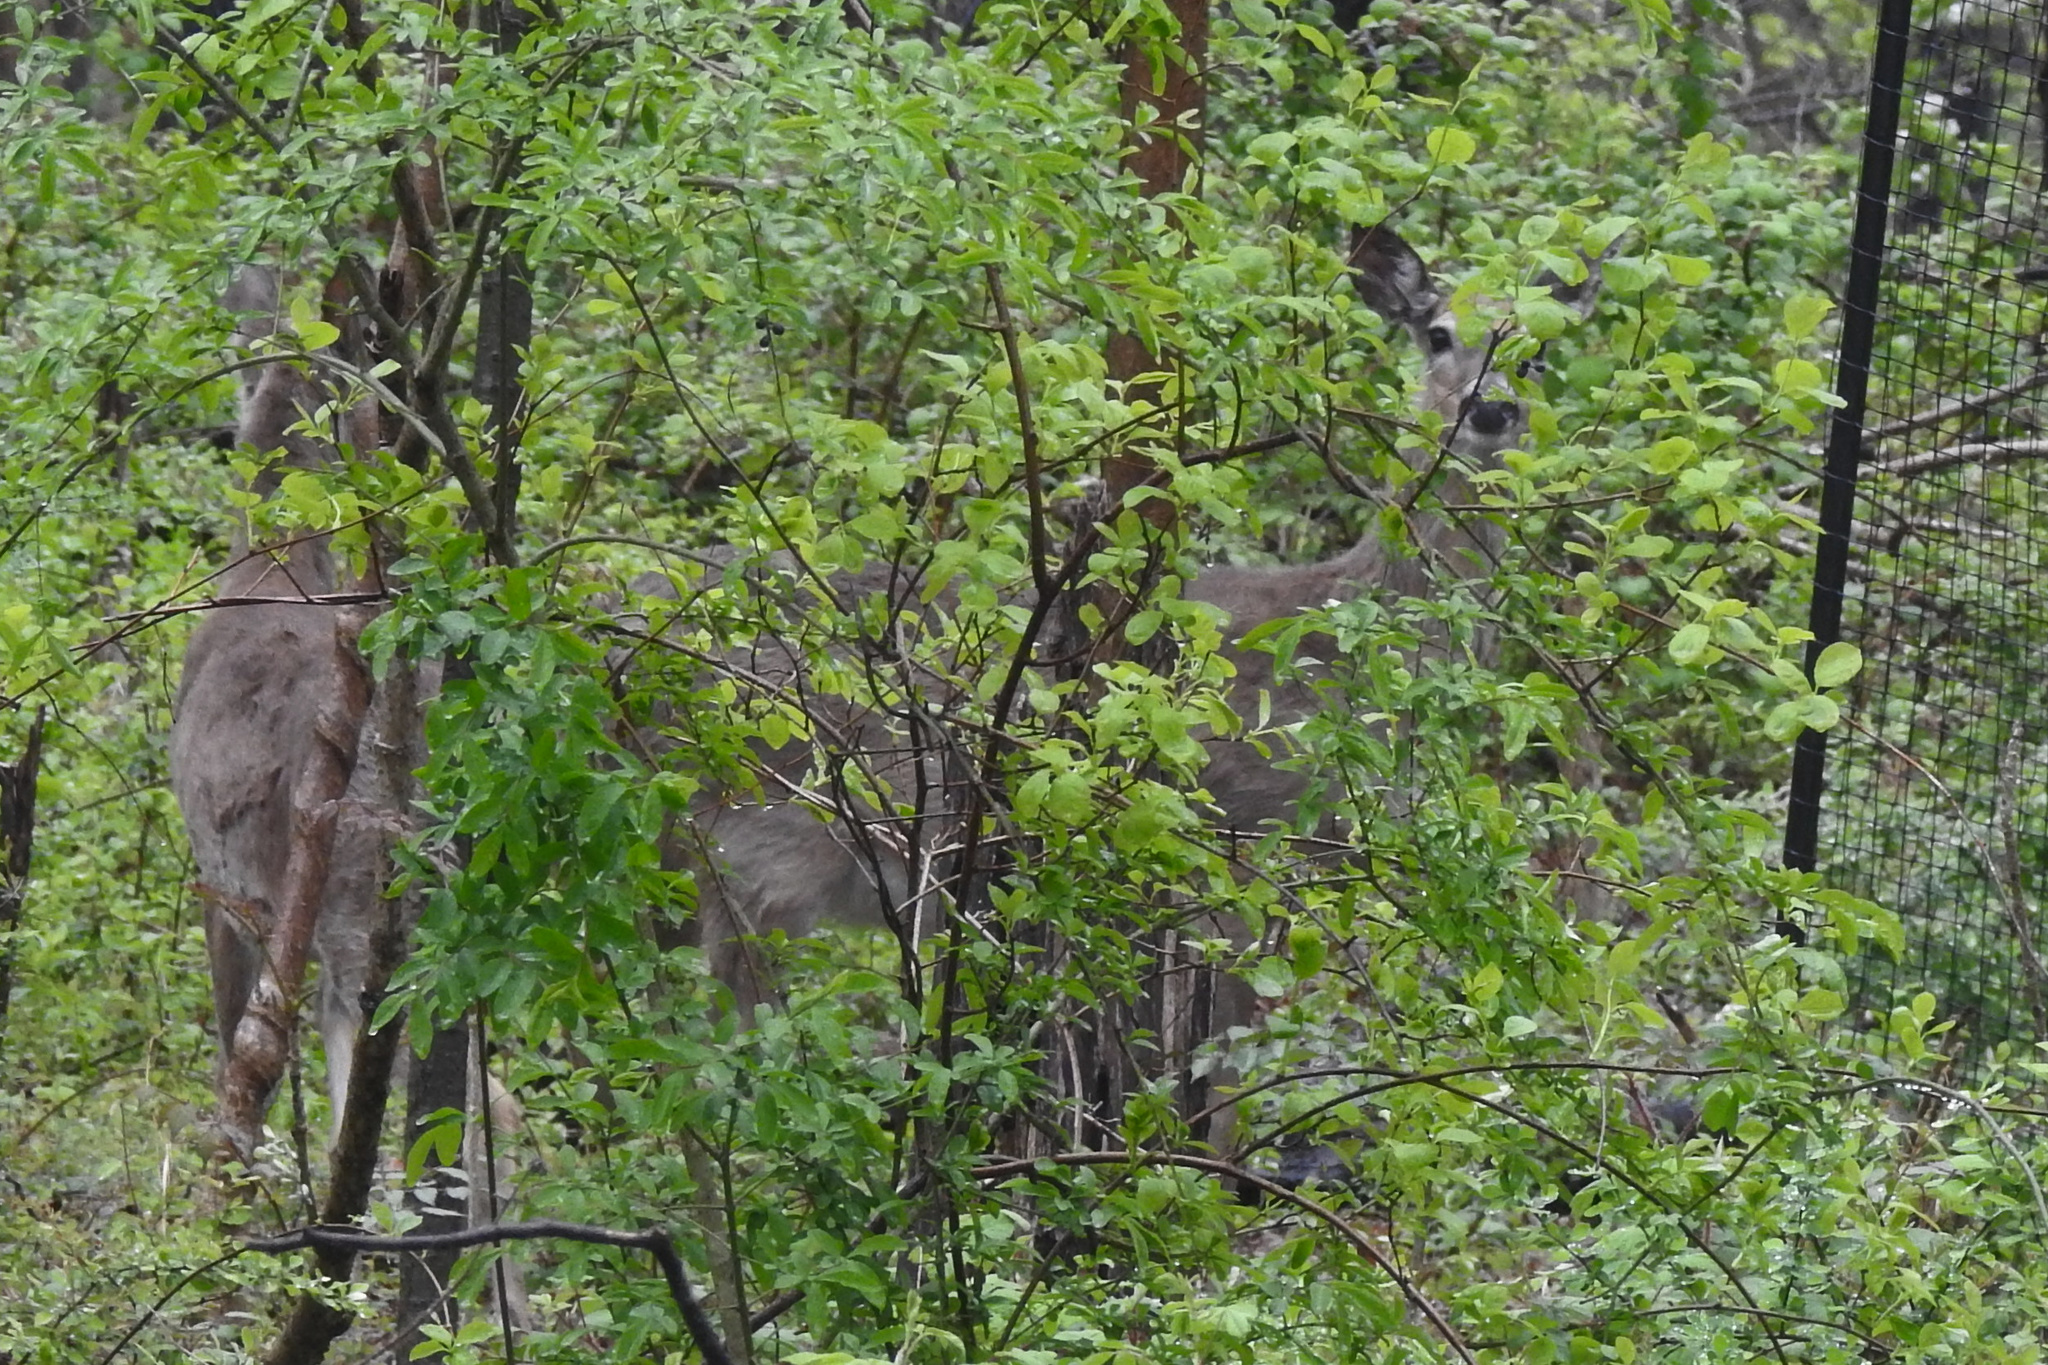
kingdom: Animalia
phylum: Chordata
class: Mammalia
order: Artiodactyla
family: Cervidae
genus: Odocoileus
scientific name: Odocoileus virginianus
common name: White-tailed deer
